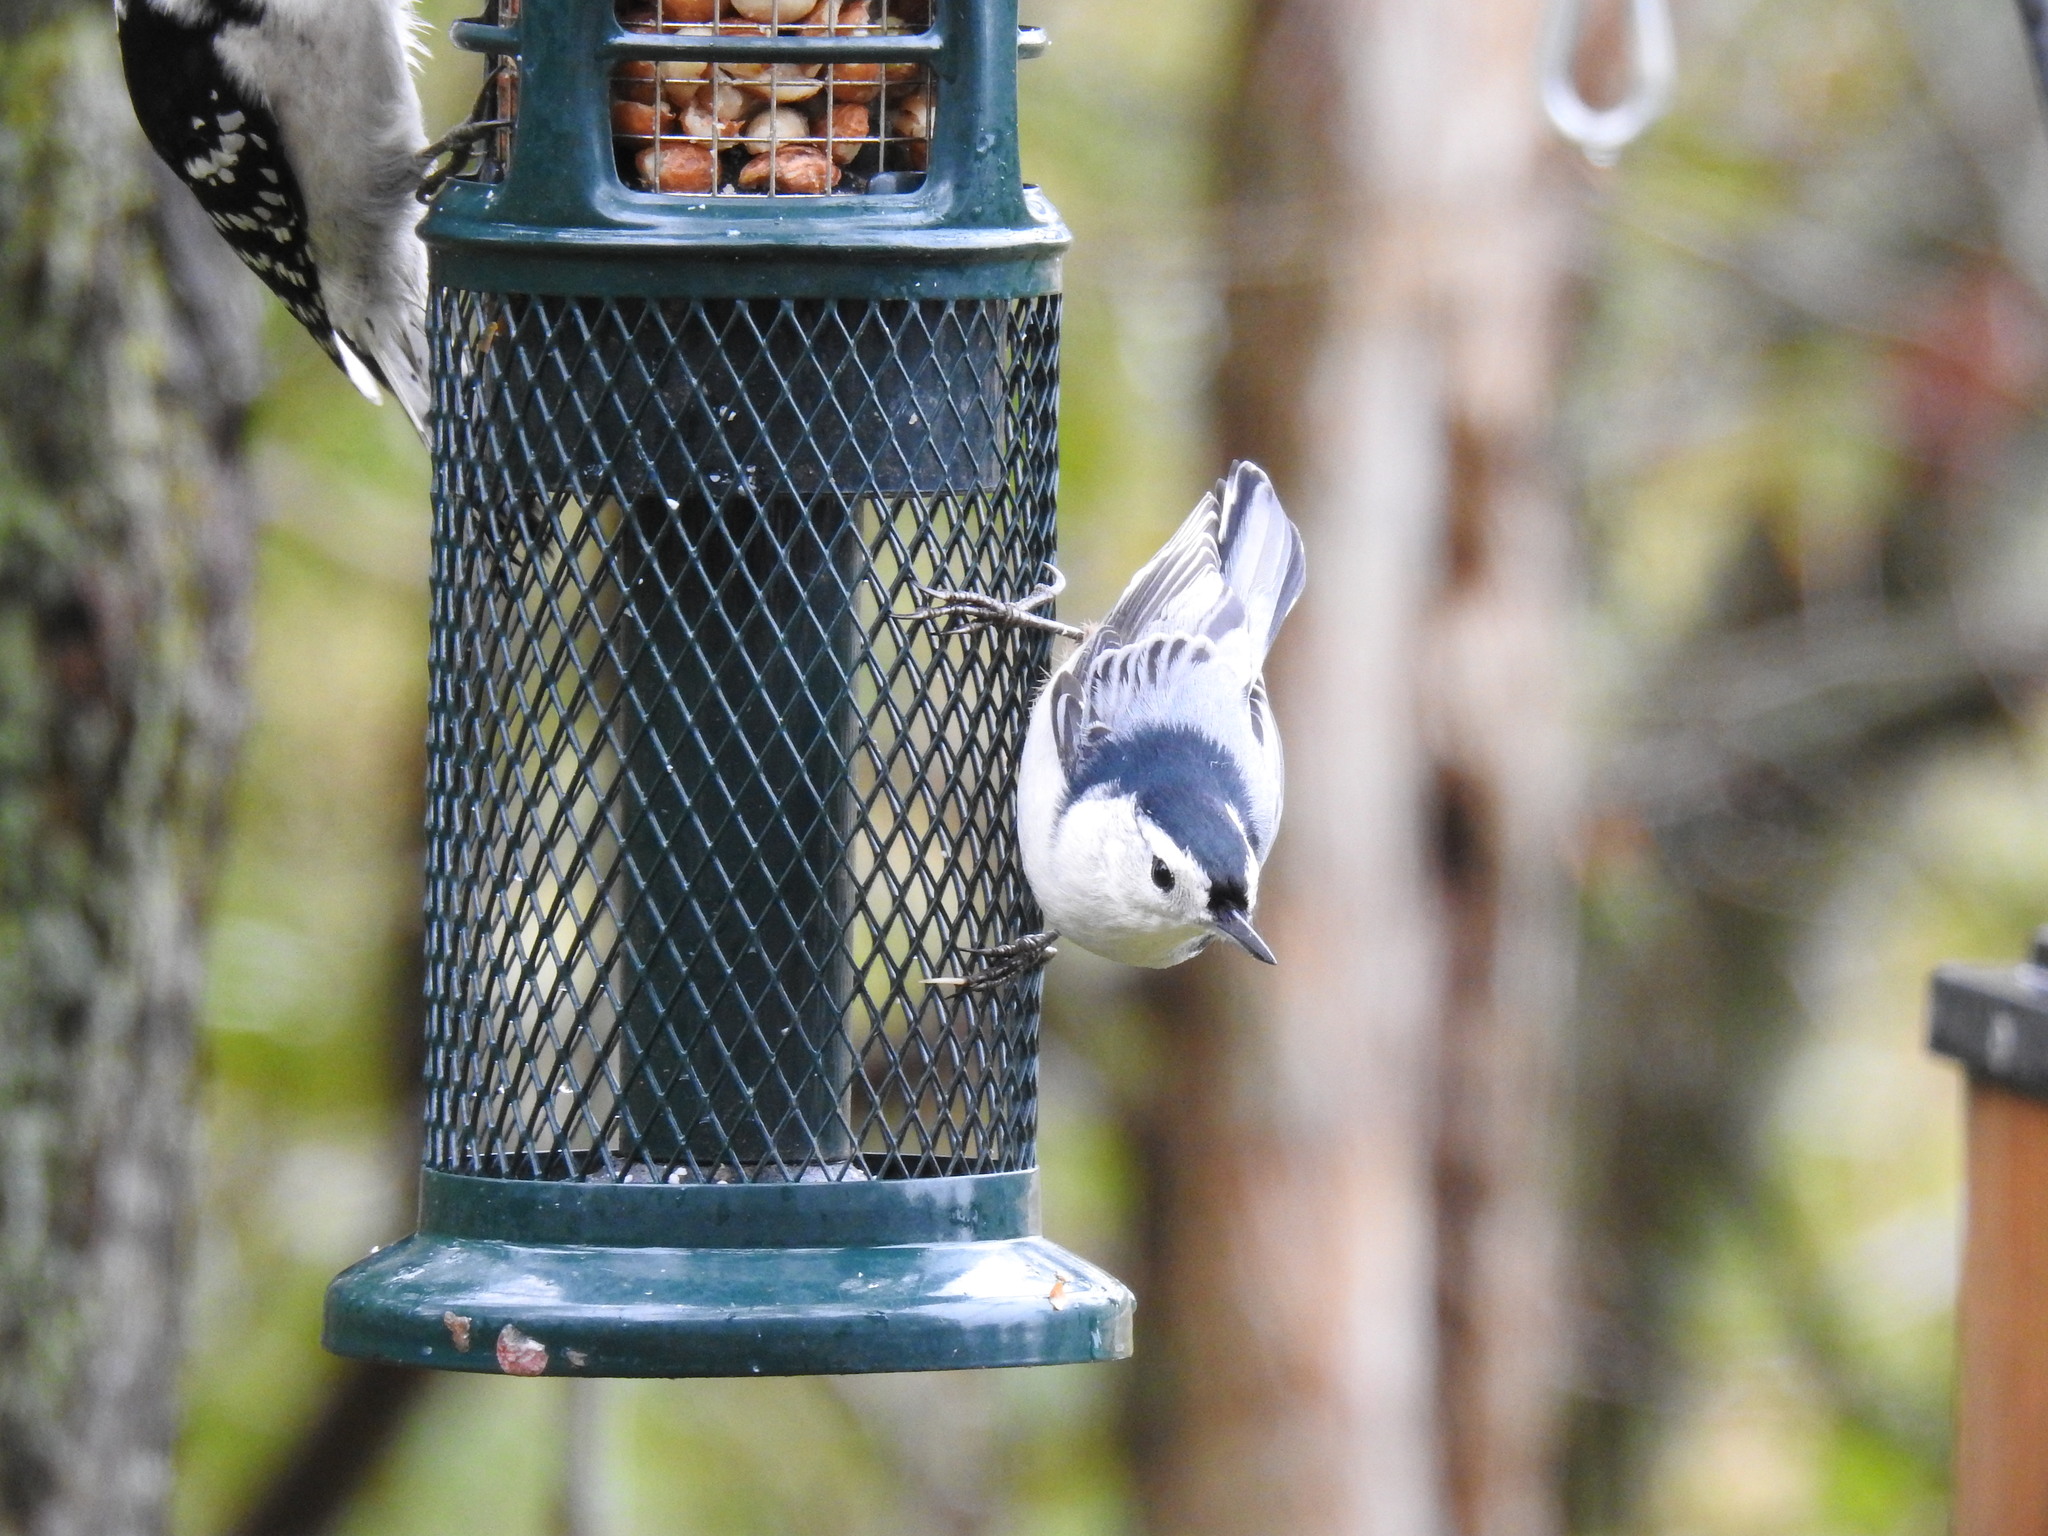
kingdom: Animalia
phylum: Chordata
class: Aves
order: Passeriformes
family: Sittidae
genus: Sitta
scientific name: Sitta carolinensis
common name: White-breasted nuthatch
